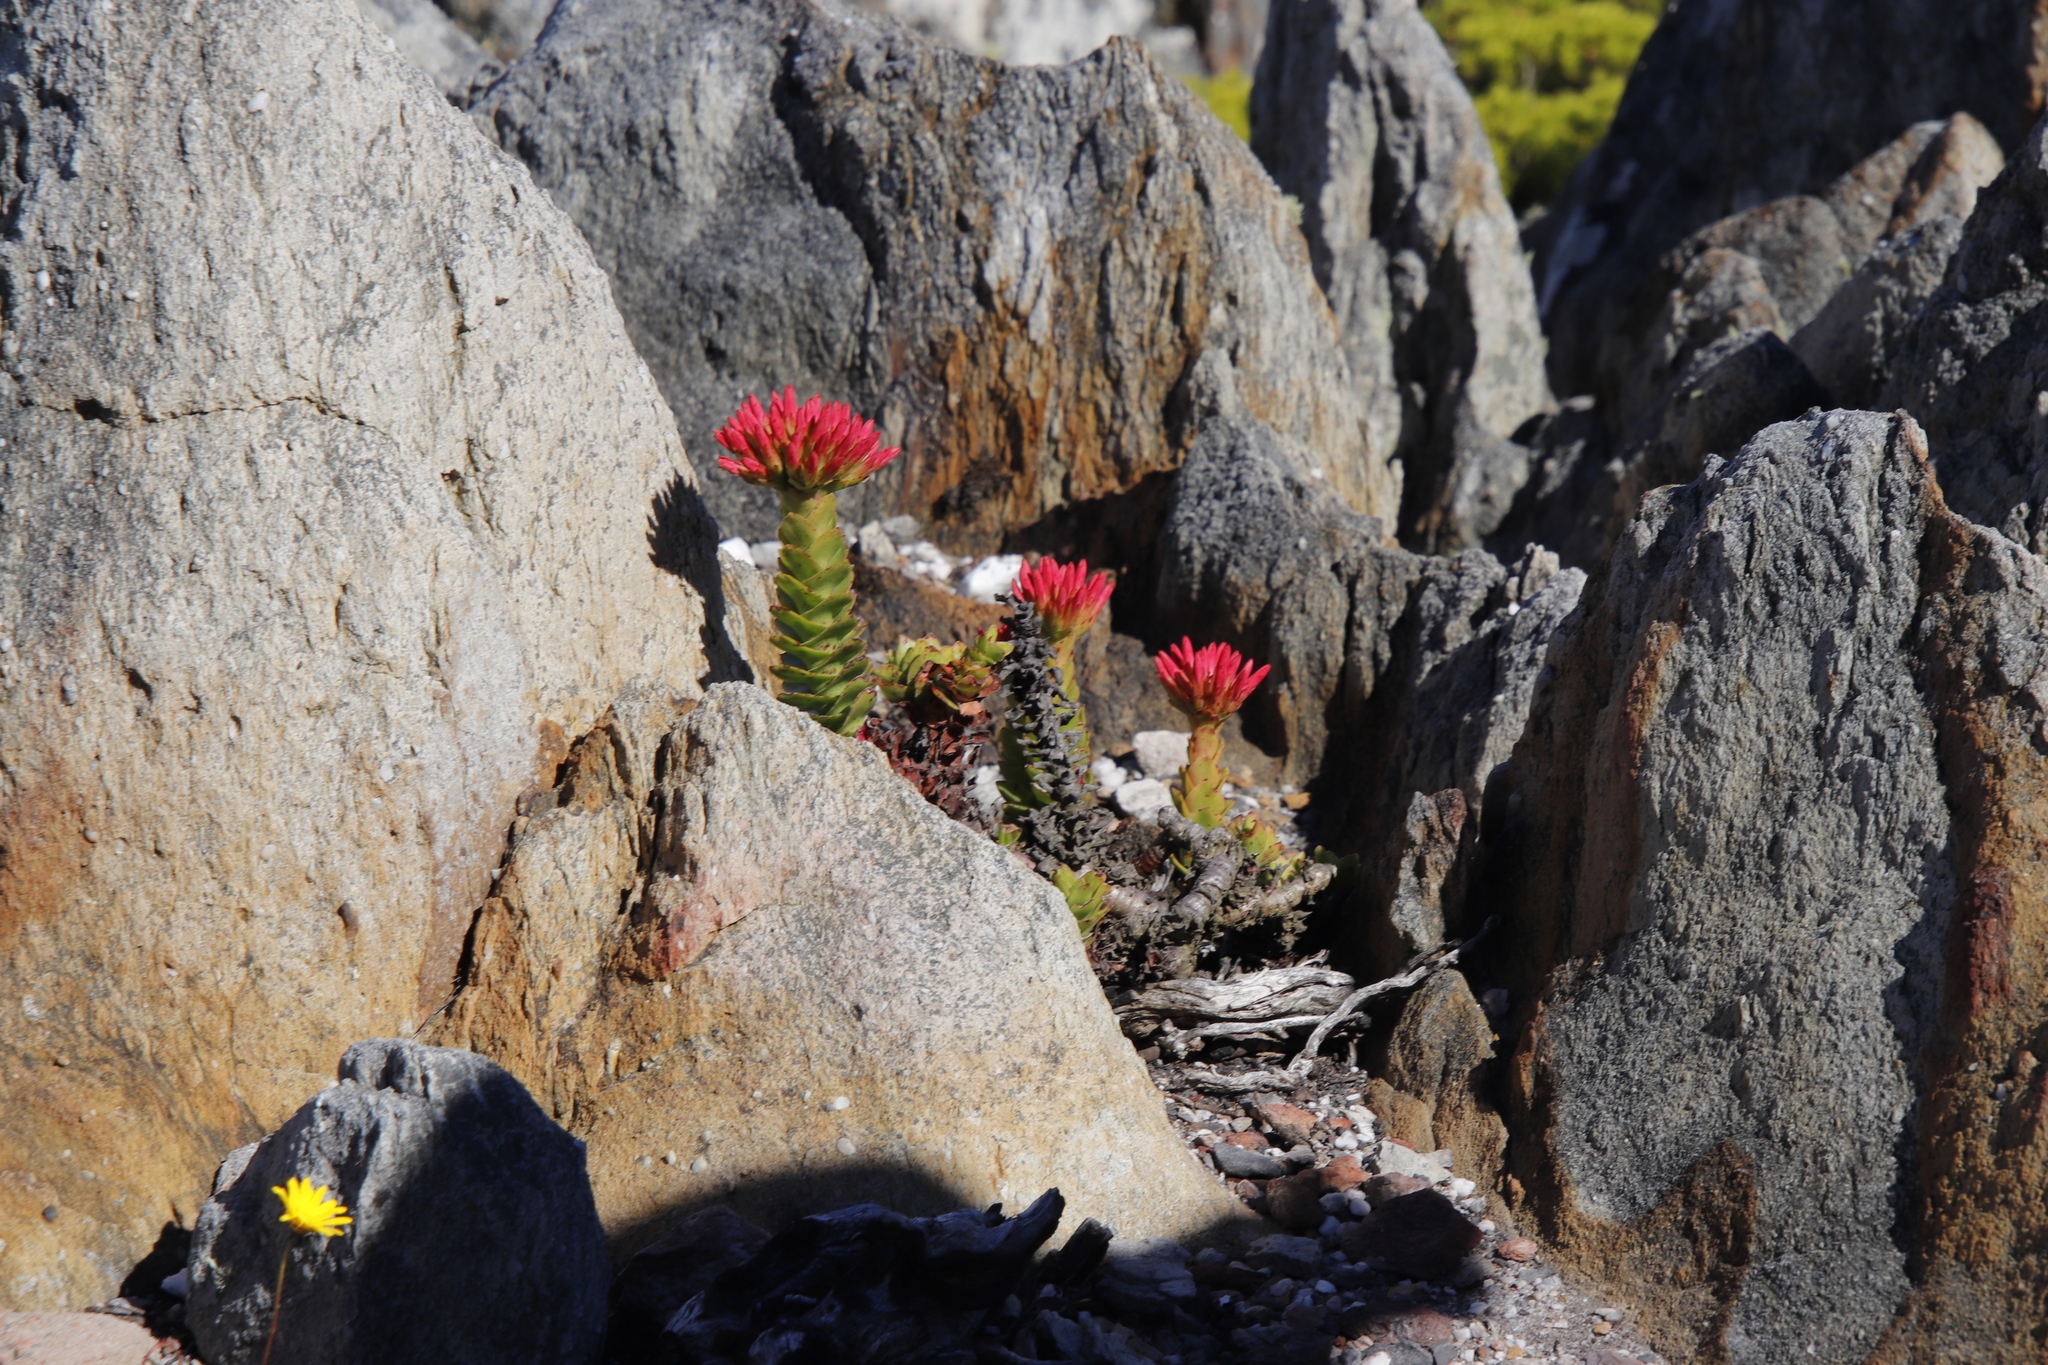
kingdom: Plantae
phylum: Tracheophyta
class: Magnoliopsida
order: Saxifragales
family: Crassulaceae
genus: Crassula
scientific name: Crassula coccinea
